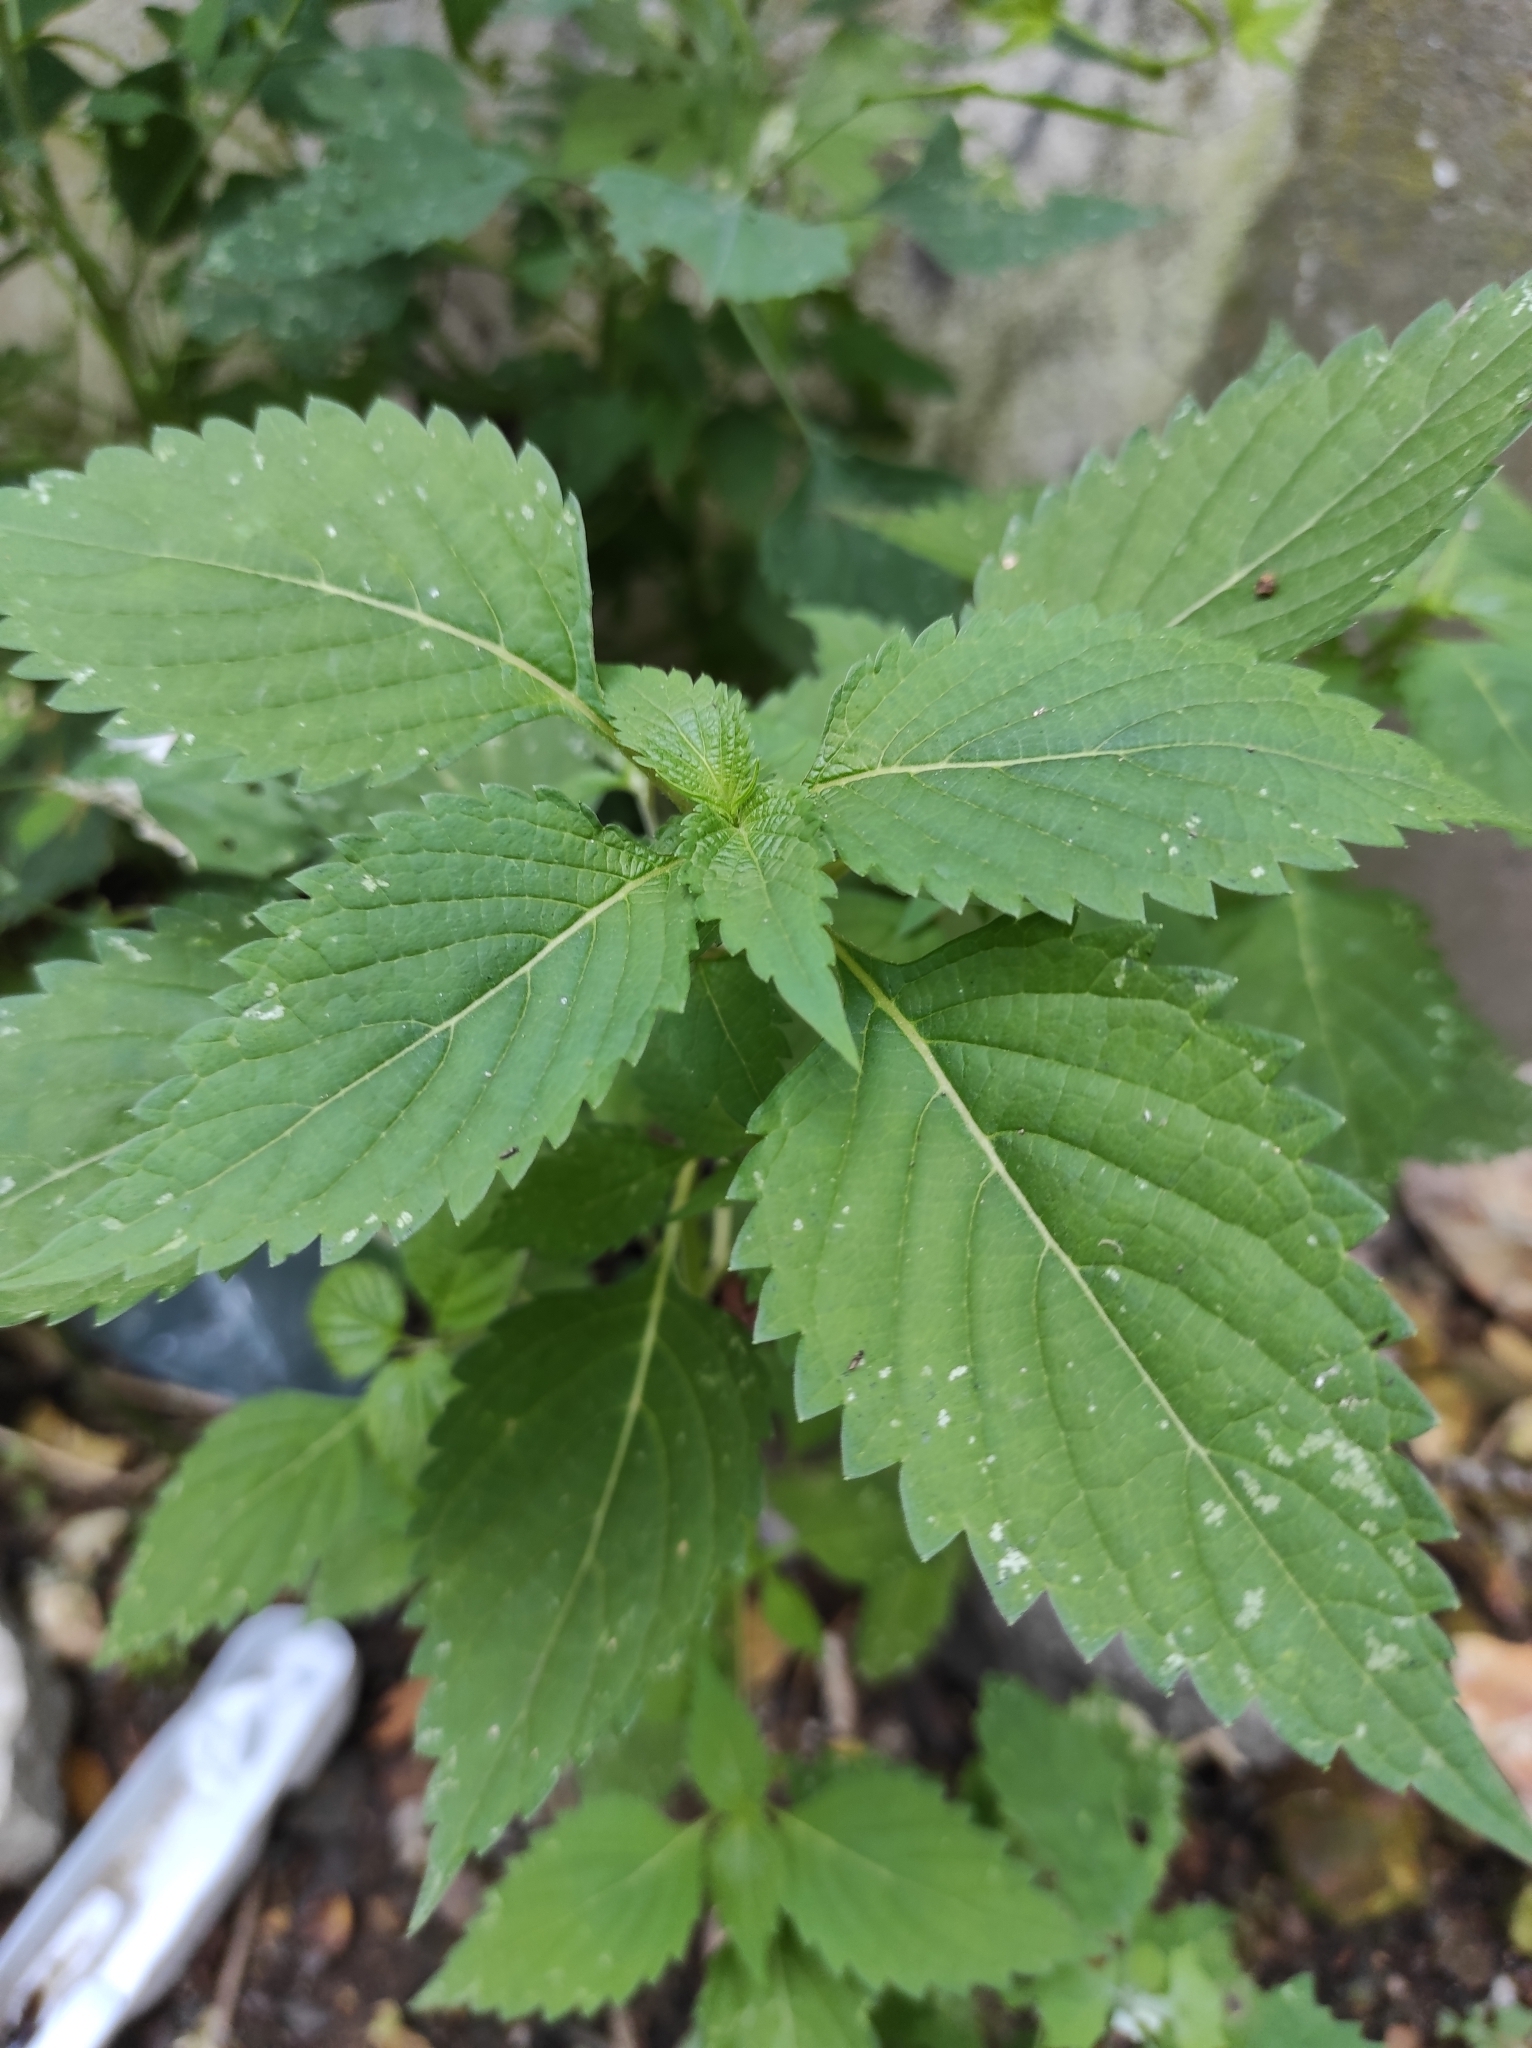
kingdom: Plantae
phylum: Tracheophyta
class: Magnoliopsida
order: Lamiales
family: Lamiaceae
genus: Elsholtzia
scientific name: Elsholtzia ciliata
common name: Ciliate elsholtzia
